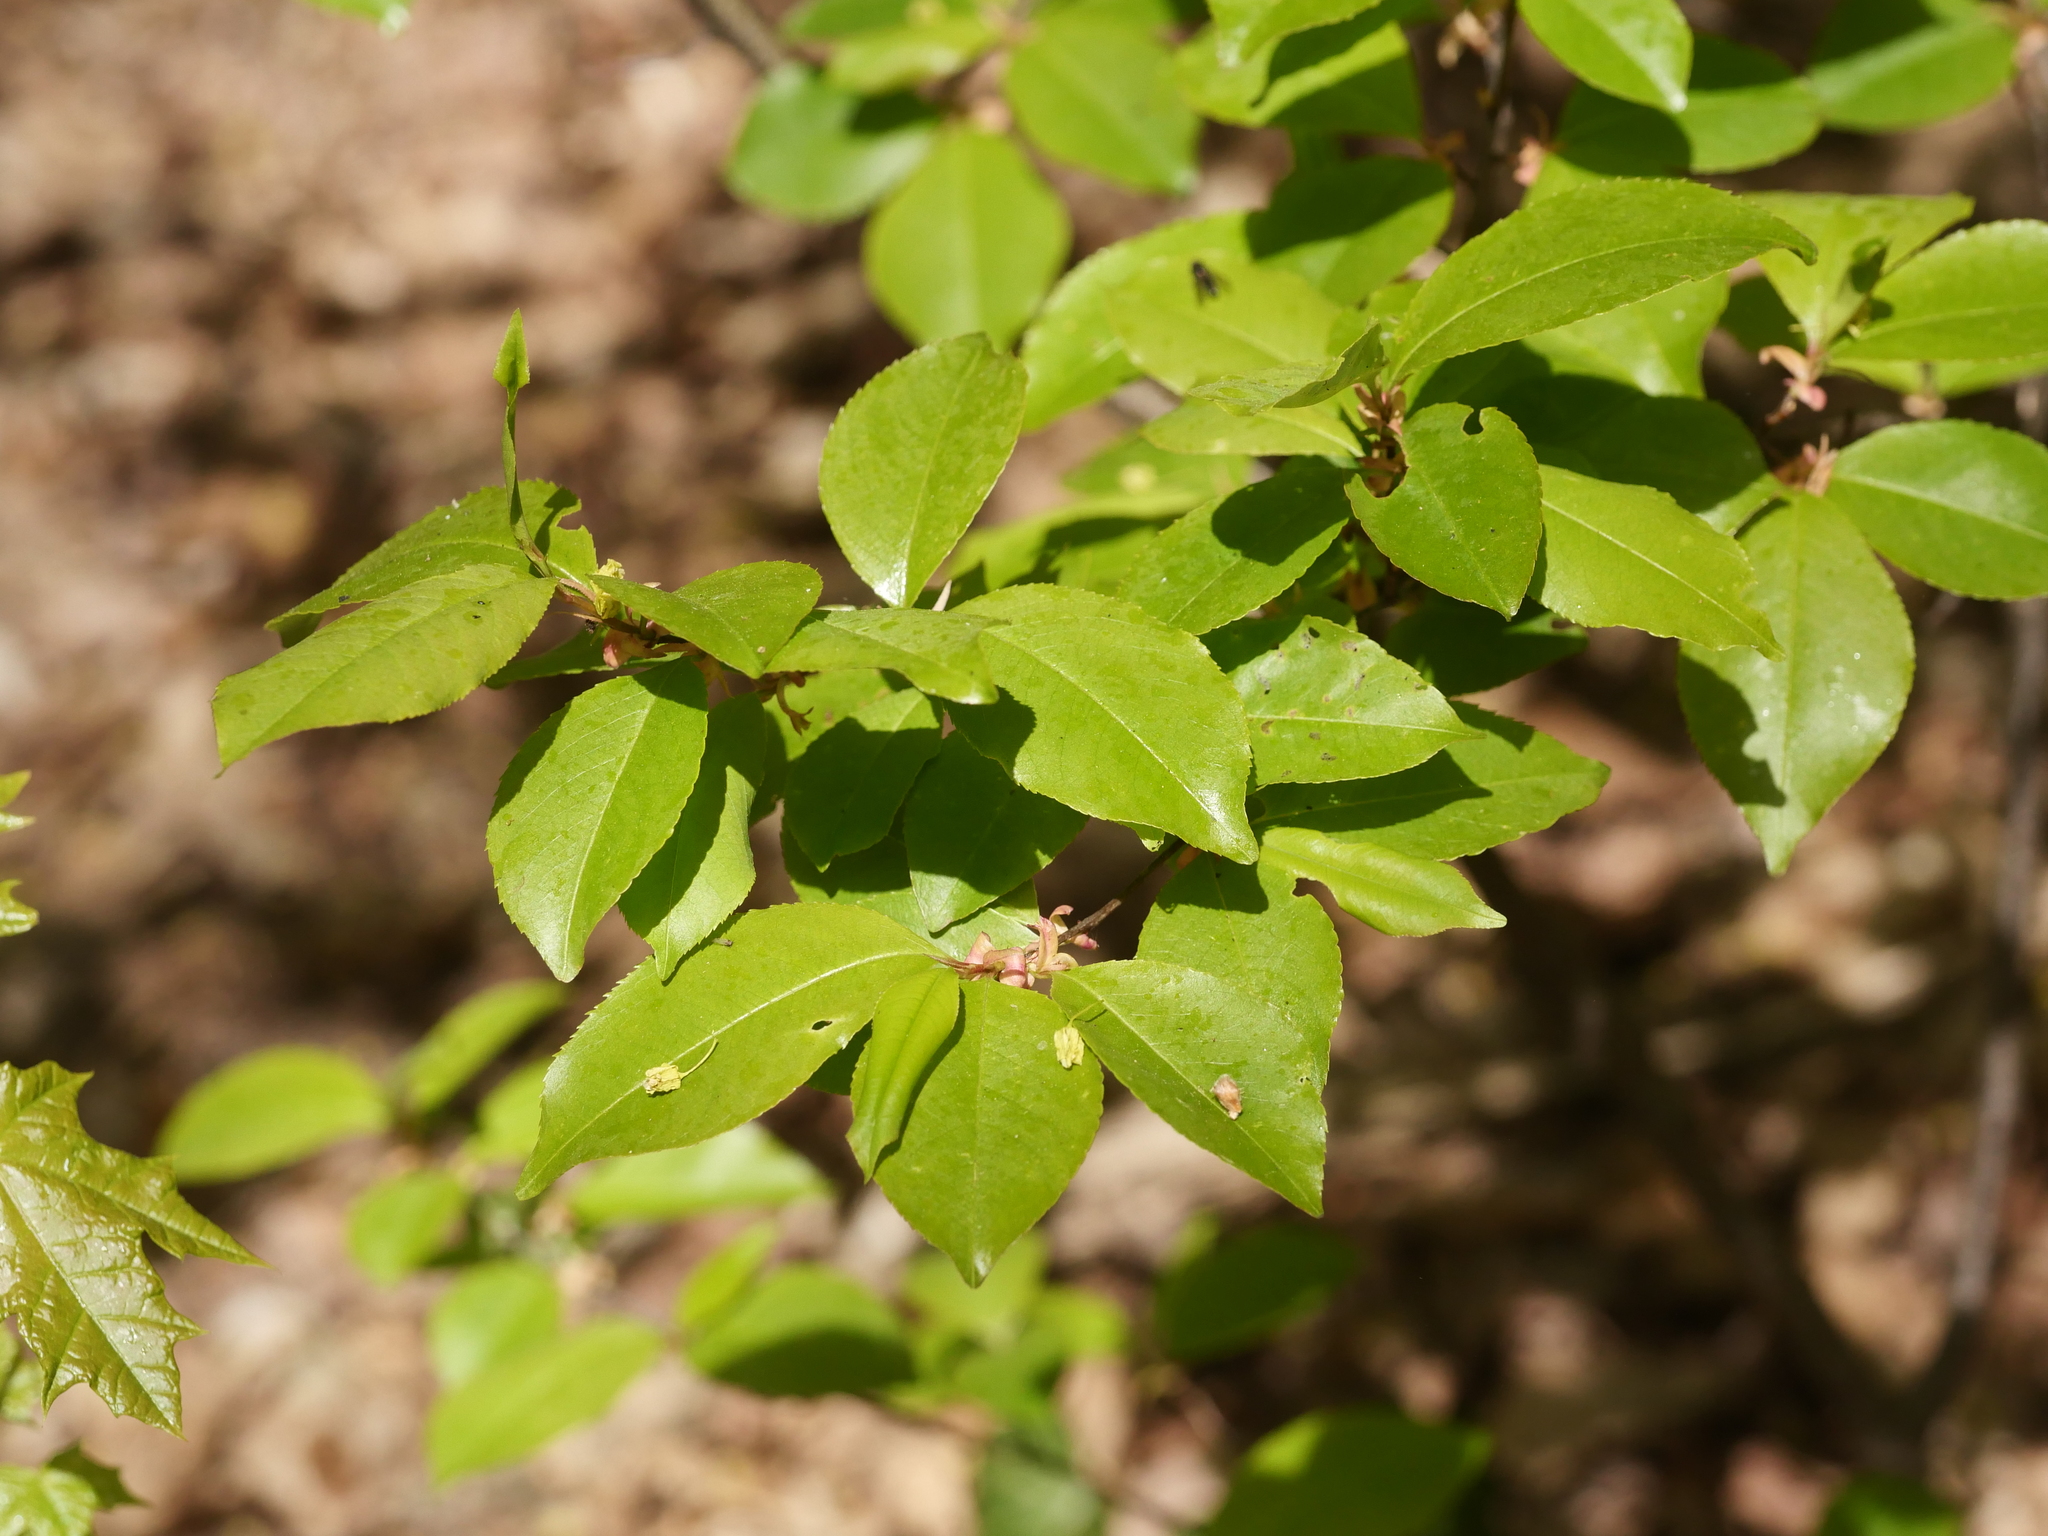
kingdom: Plantae
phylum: Tracheophyta
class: Magnoliopsida
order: Rosales
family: Rosaceae
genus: Prunus
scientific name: Prunus serotina
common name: Black cherry
